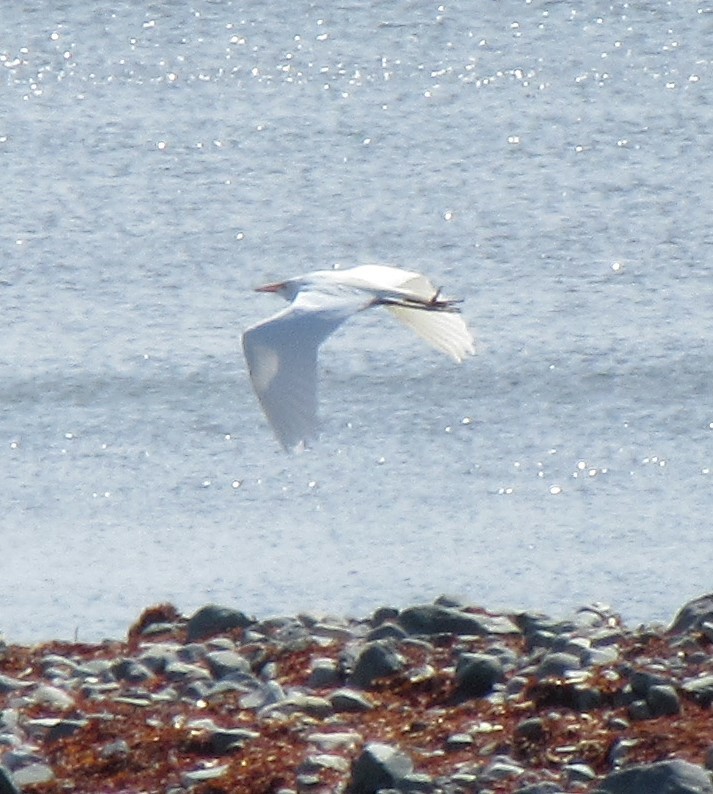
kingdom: Animalia
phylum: Chordata
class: Aves
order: Pelecaniformes
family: Ardeidae
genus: Ardea
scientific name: Ardea alba
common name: Great egret
